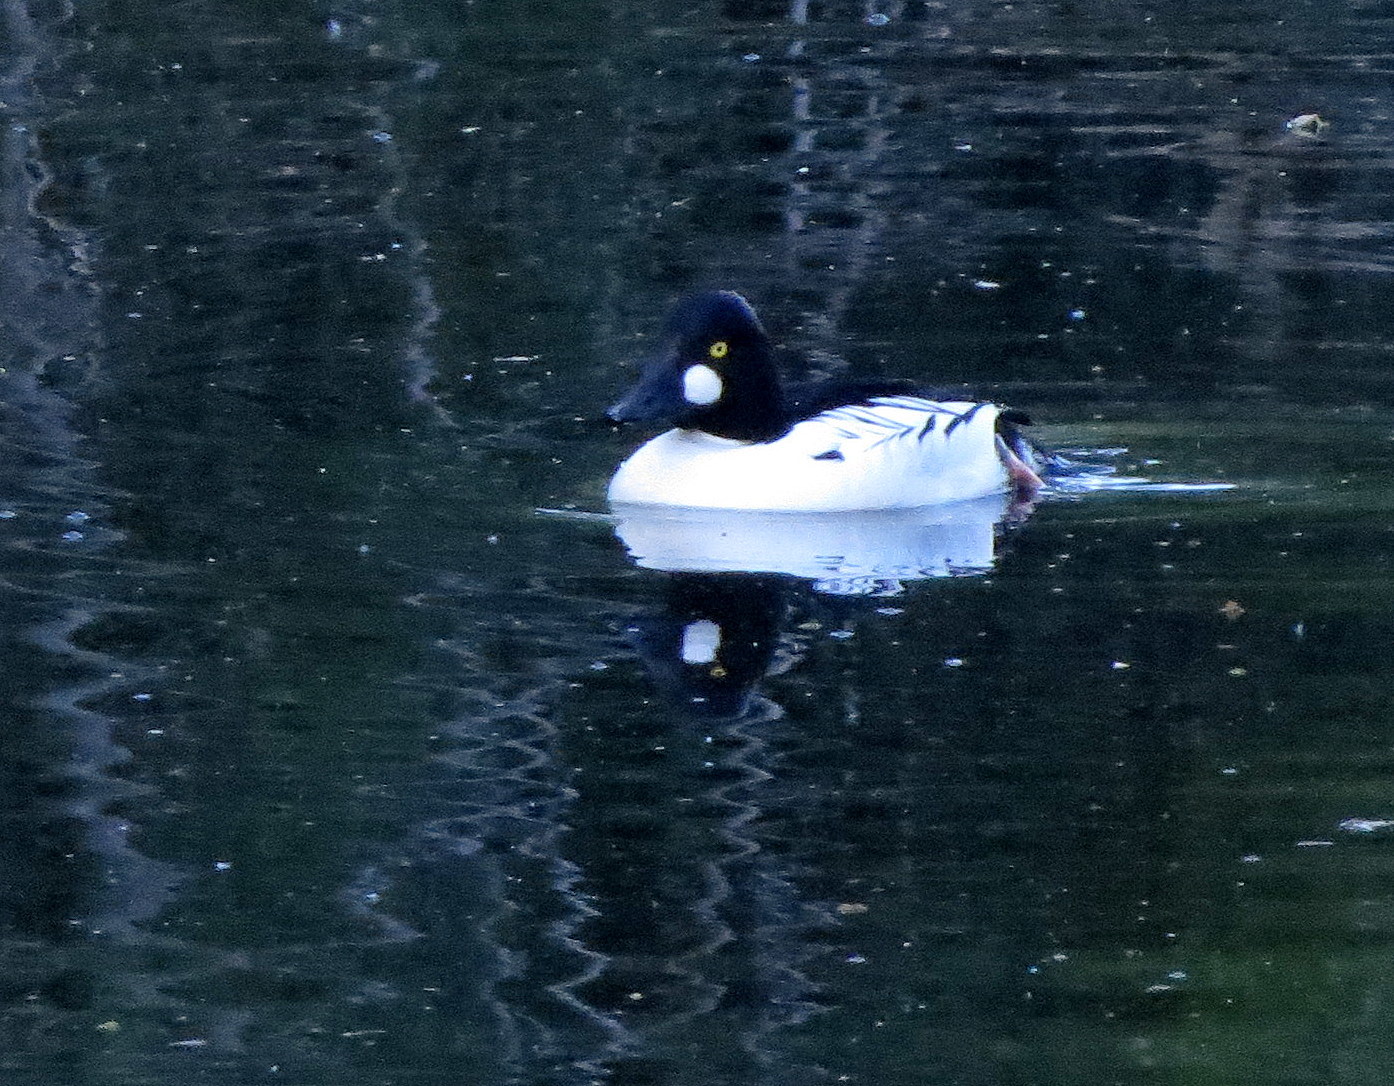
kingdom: Animalia
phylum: Chordata
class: Aves
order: Anseriformes
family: Anatidae
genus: Bucephala
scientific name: Bucephala clangula
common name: Common goldeneye
